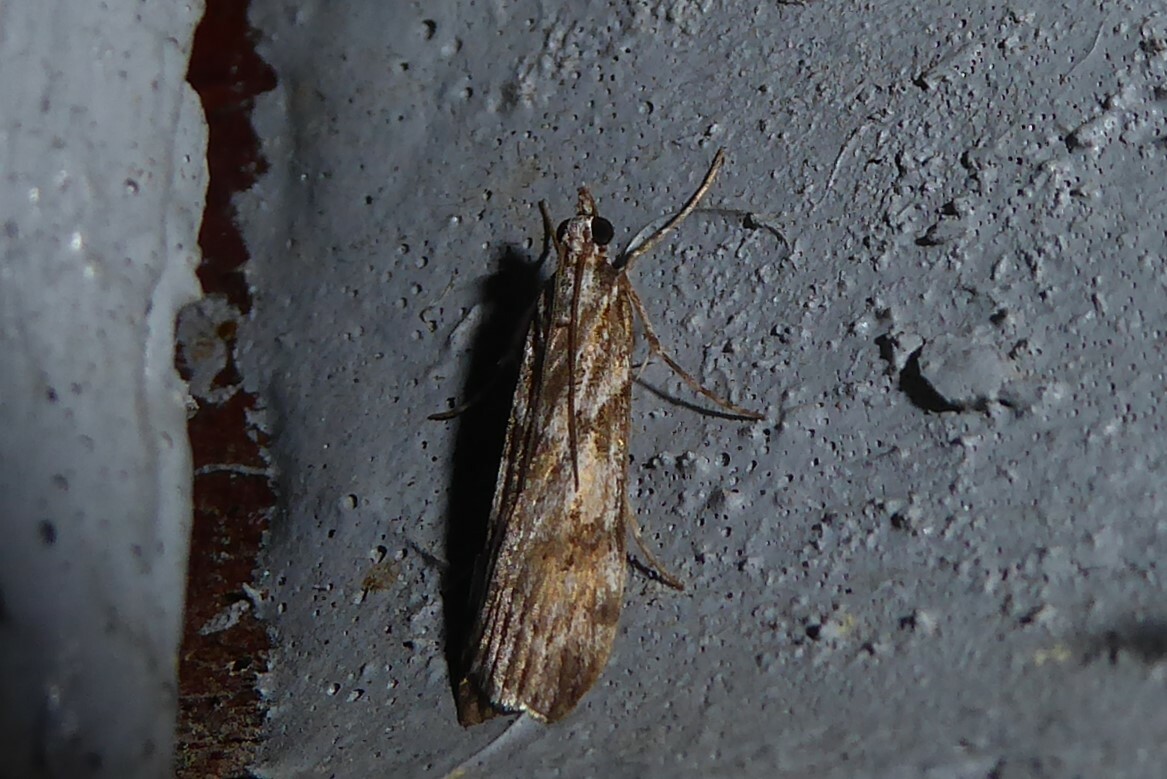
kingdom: Animalia
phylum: Arthropoda
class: Insecta
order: Lepidoptera
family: Crambidae
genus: Scoparia
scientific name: Scoparia halopis
